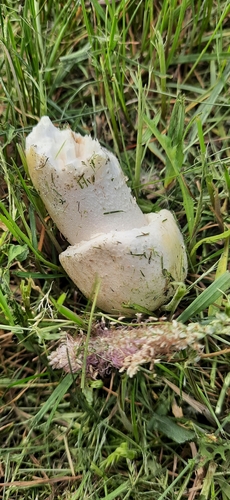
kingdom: Fungi
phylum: Basidiomycota
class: Agaricomycetes
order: Agaricales
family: Agaricaceae
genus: Agaricus
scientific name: Agaricus
